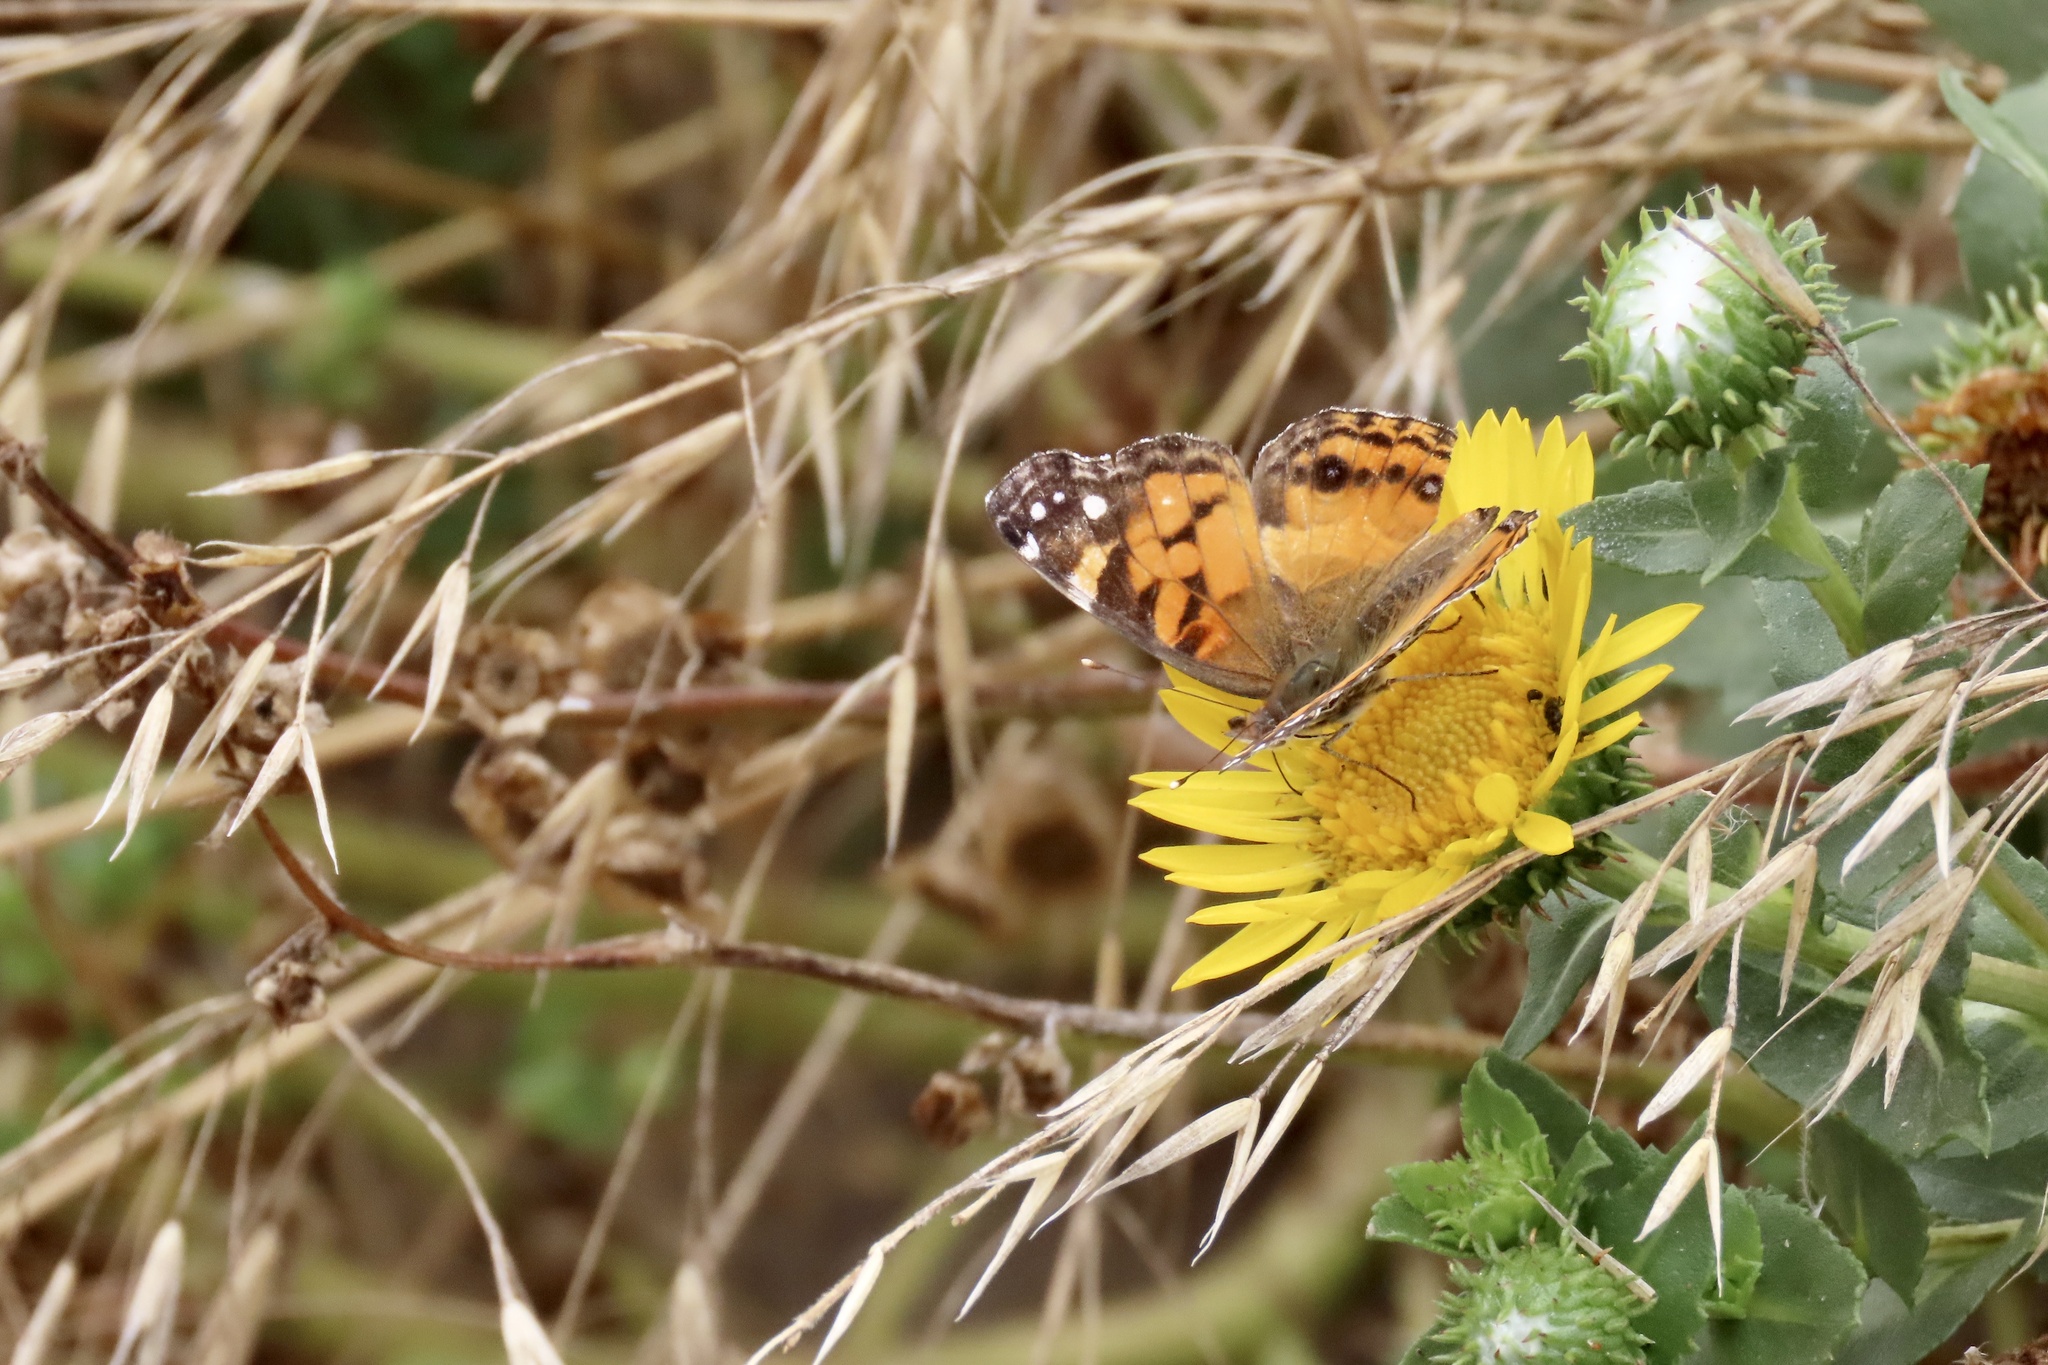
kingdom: Animalia
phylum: Arthropoda
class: Insecta
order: Lepidoptera
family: Nymphalidae
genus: Vanessa
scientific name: Vanessa virginiensis
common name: American lady
